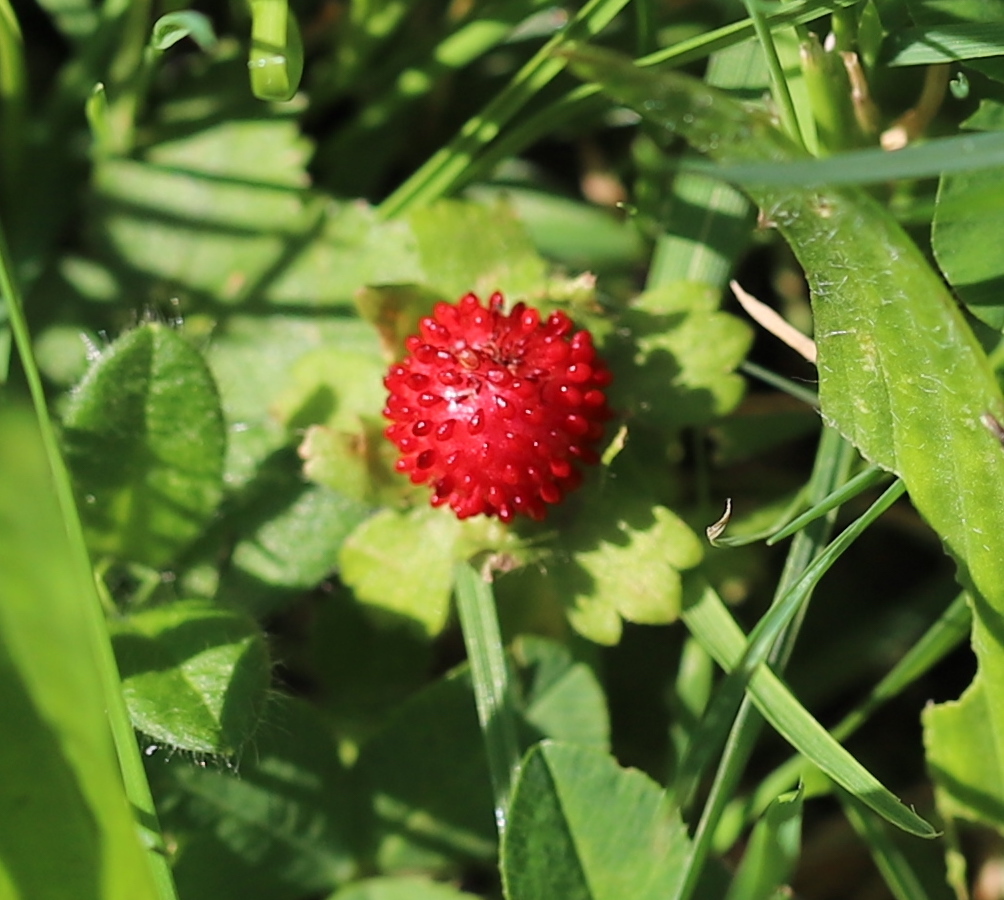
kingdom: Plantae
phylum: Tracheophyta
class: Magnoliopsida
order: Rosales
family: Rosaceae
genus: Potentilla
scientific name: Potentilla indica
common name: Yellow-flowered strawberry
